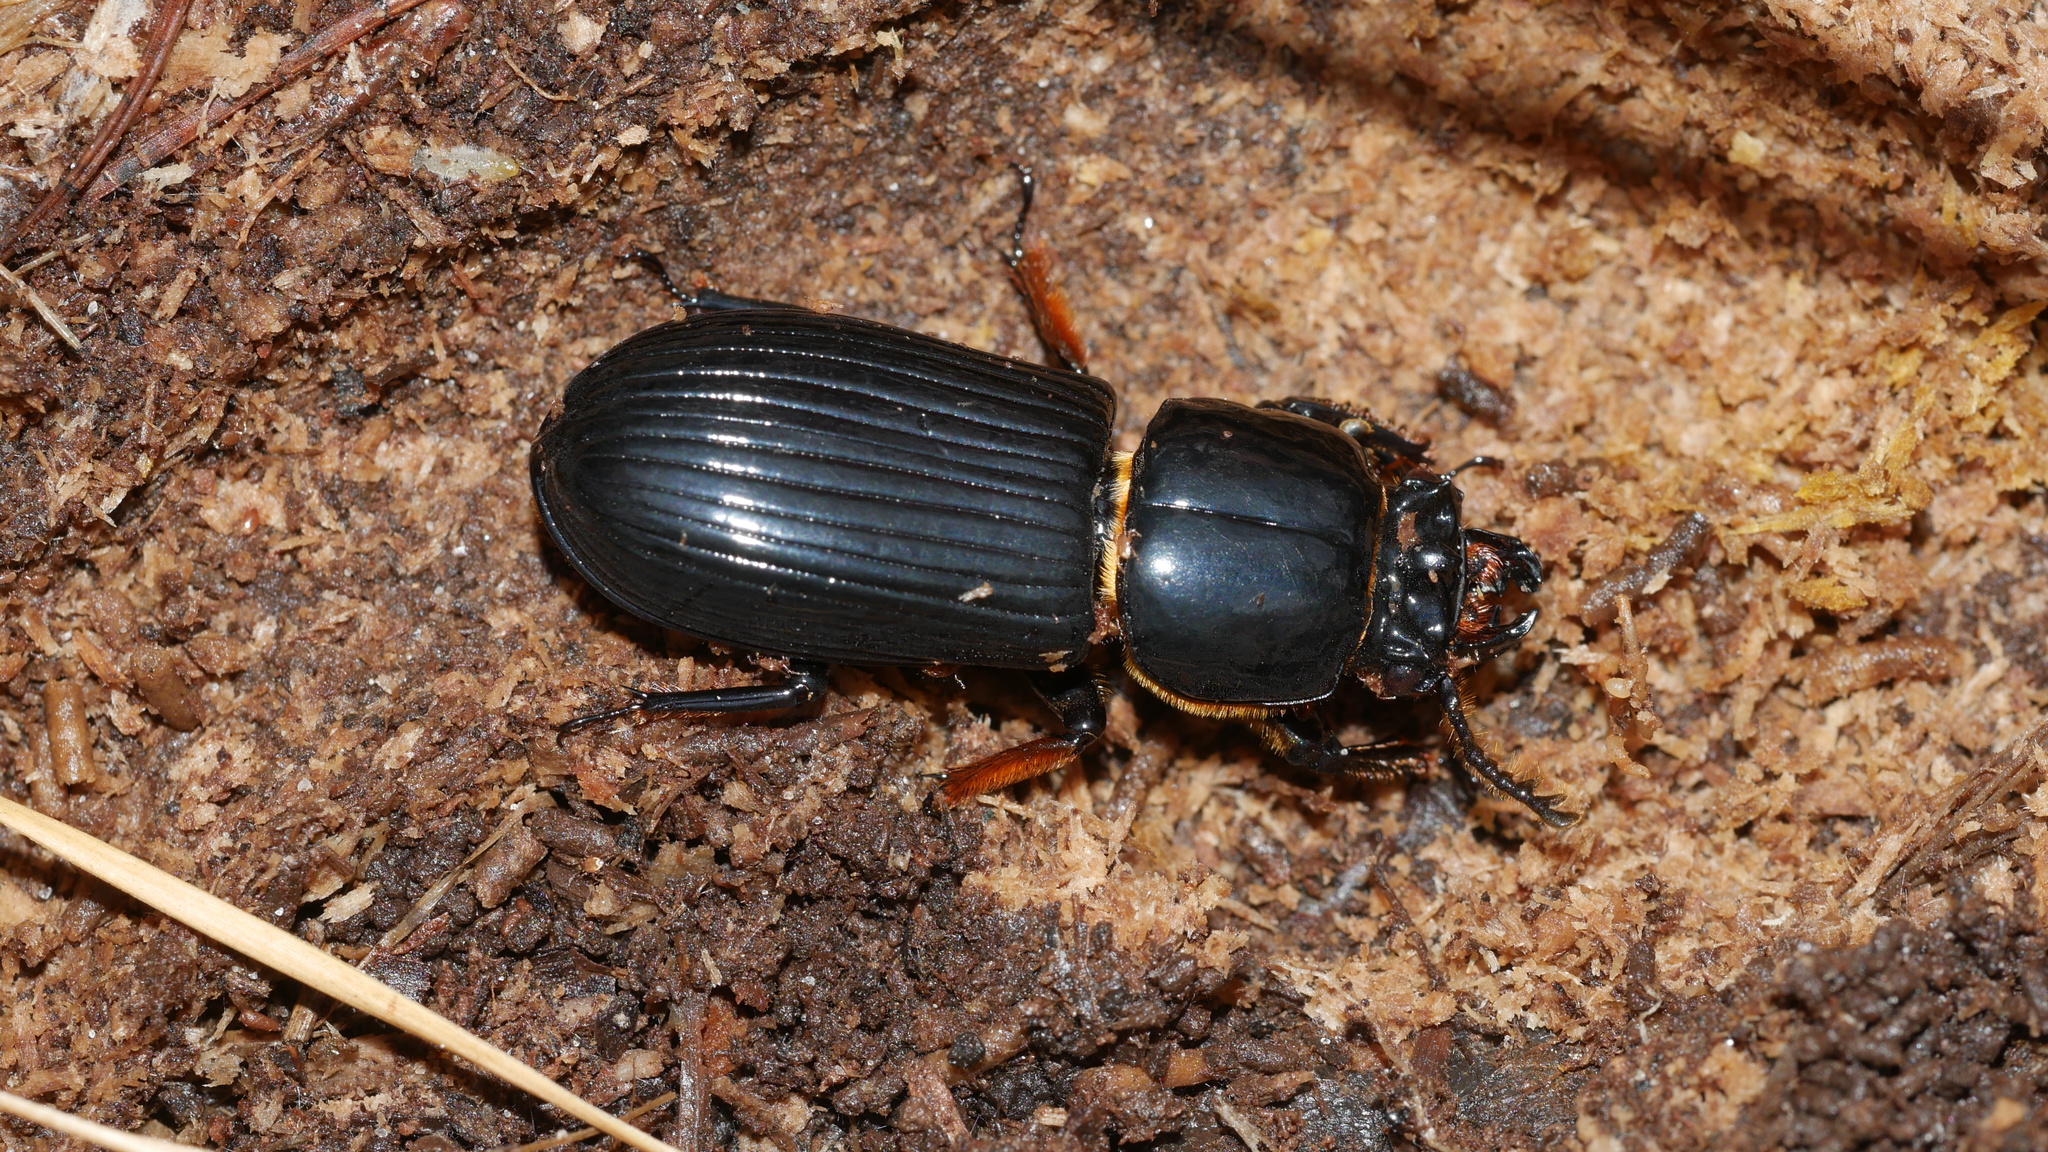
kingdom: Animalia
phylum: Arthropoda
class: Insecta
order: Coleoptera
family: Passalidae
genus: Odontotaenius
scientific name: Odontotaenius disjunctus
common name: Patent leather beetle
